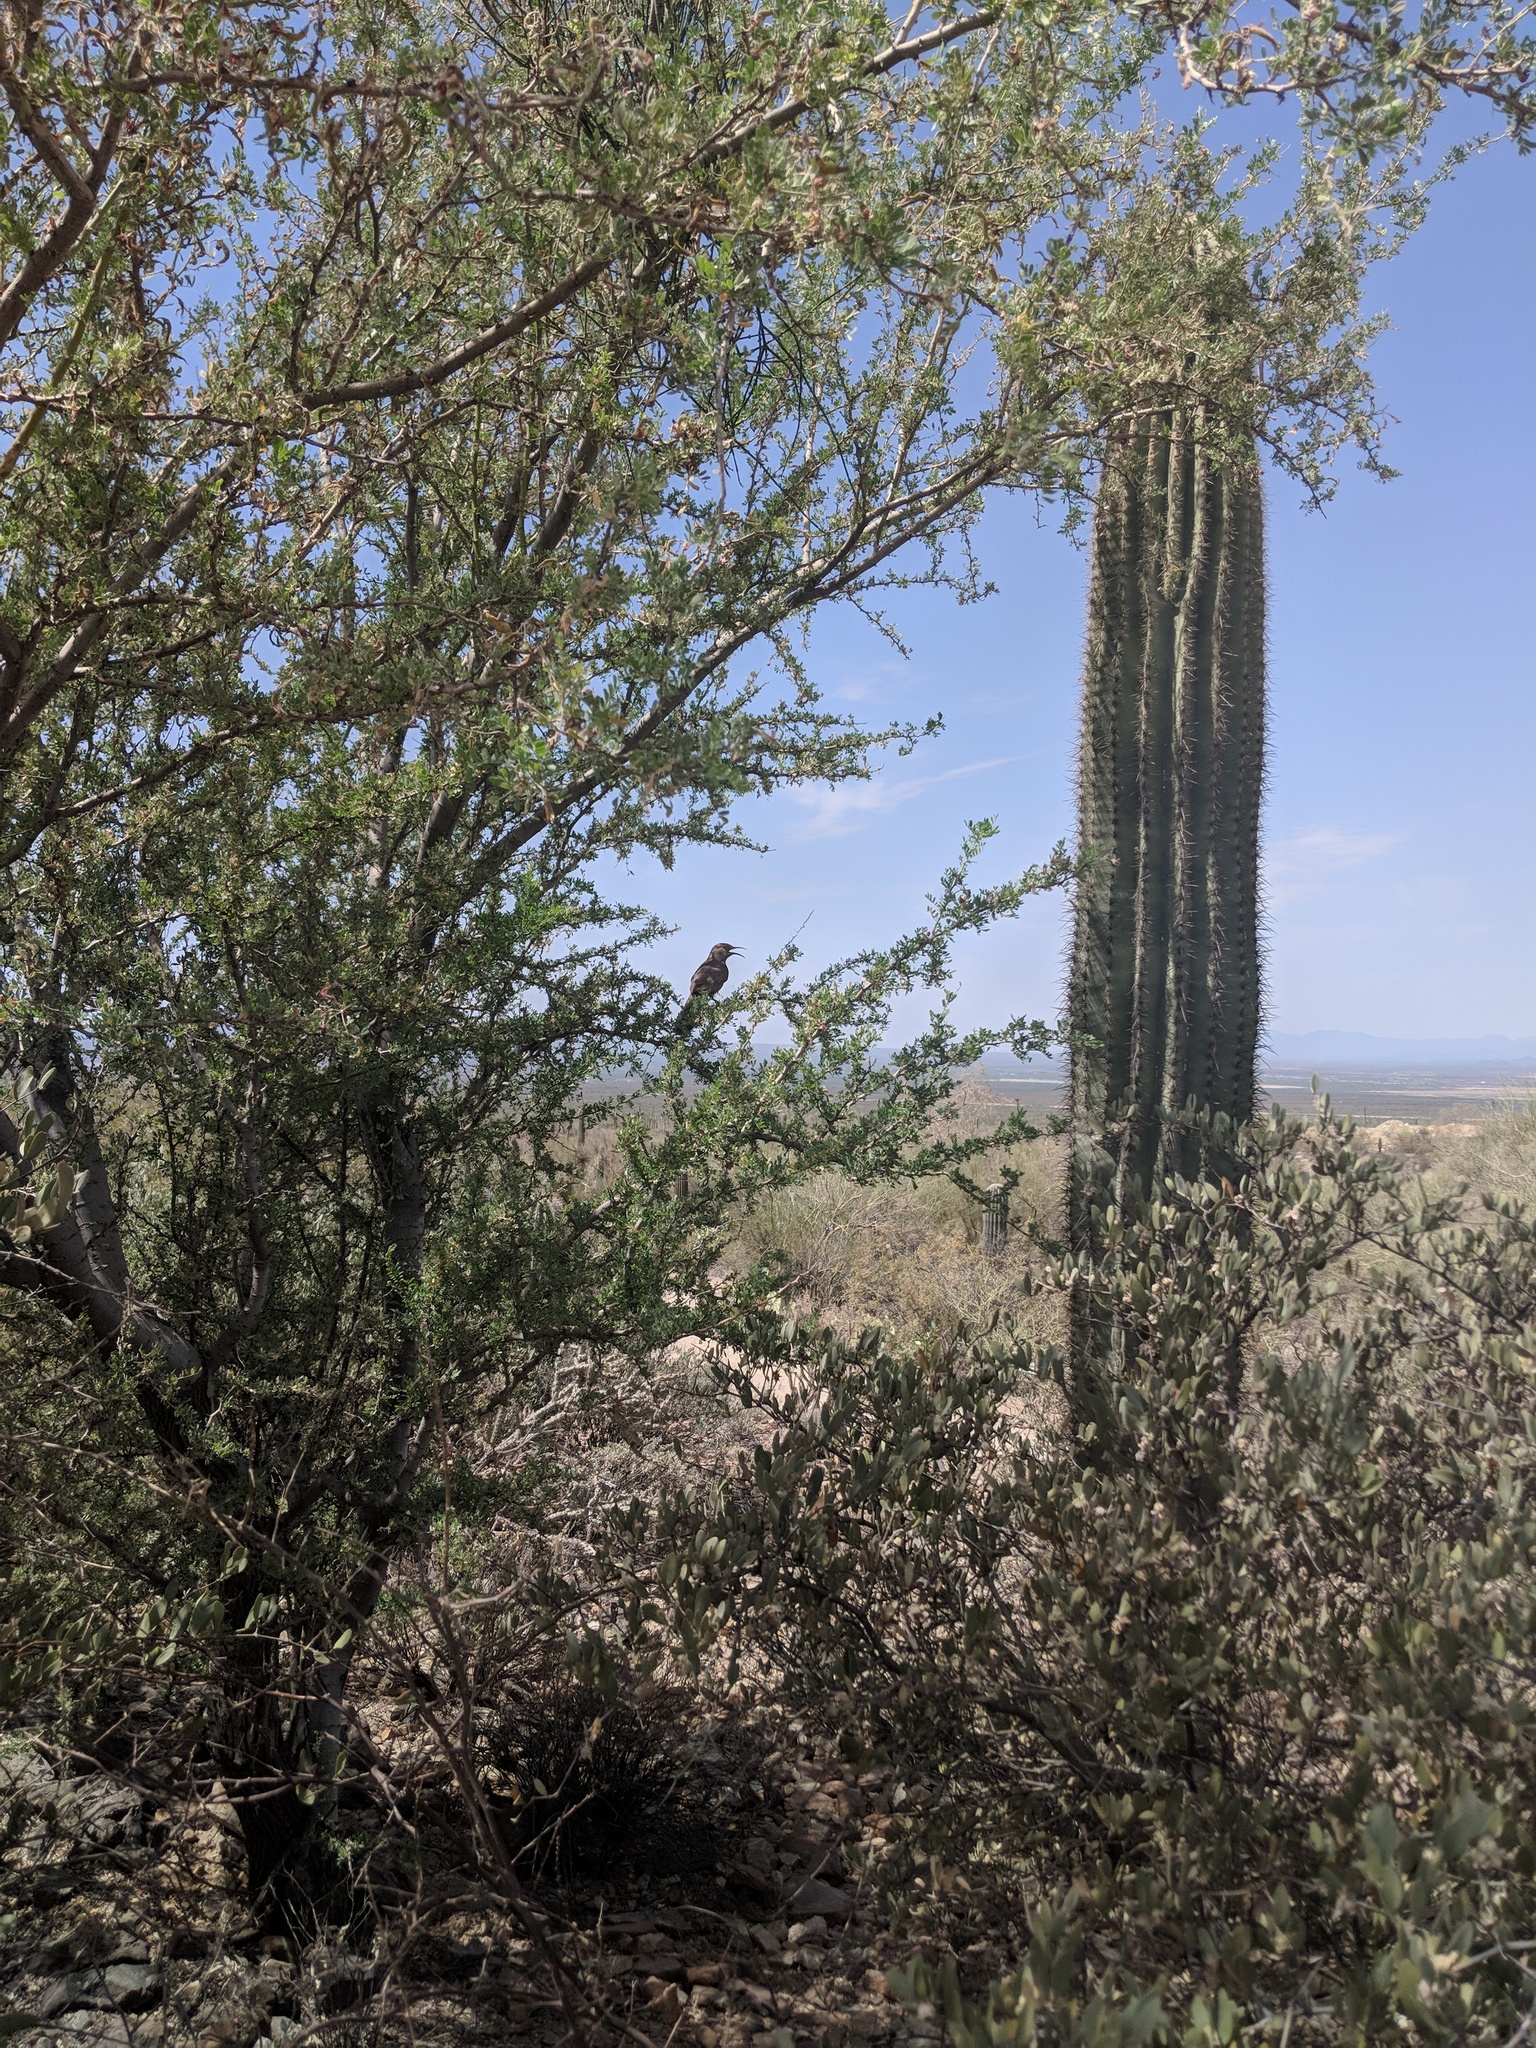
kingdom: Animalia
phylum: Chordata
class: Aves
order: Passeriformes
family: Mimidae
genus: Toxostoma
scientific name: Toxostoma curvirostre
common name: Curve-billed thrasher
